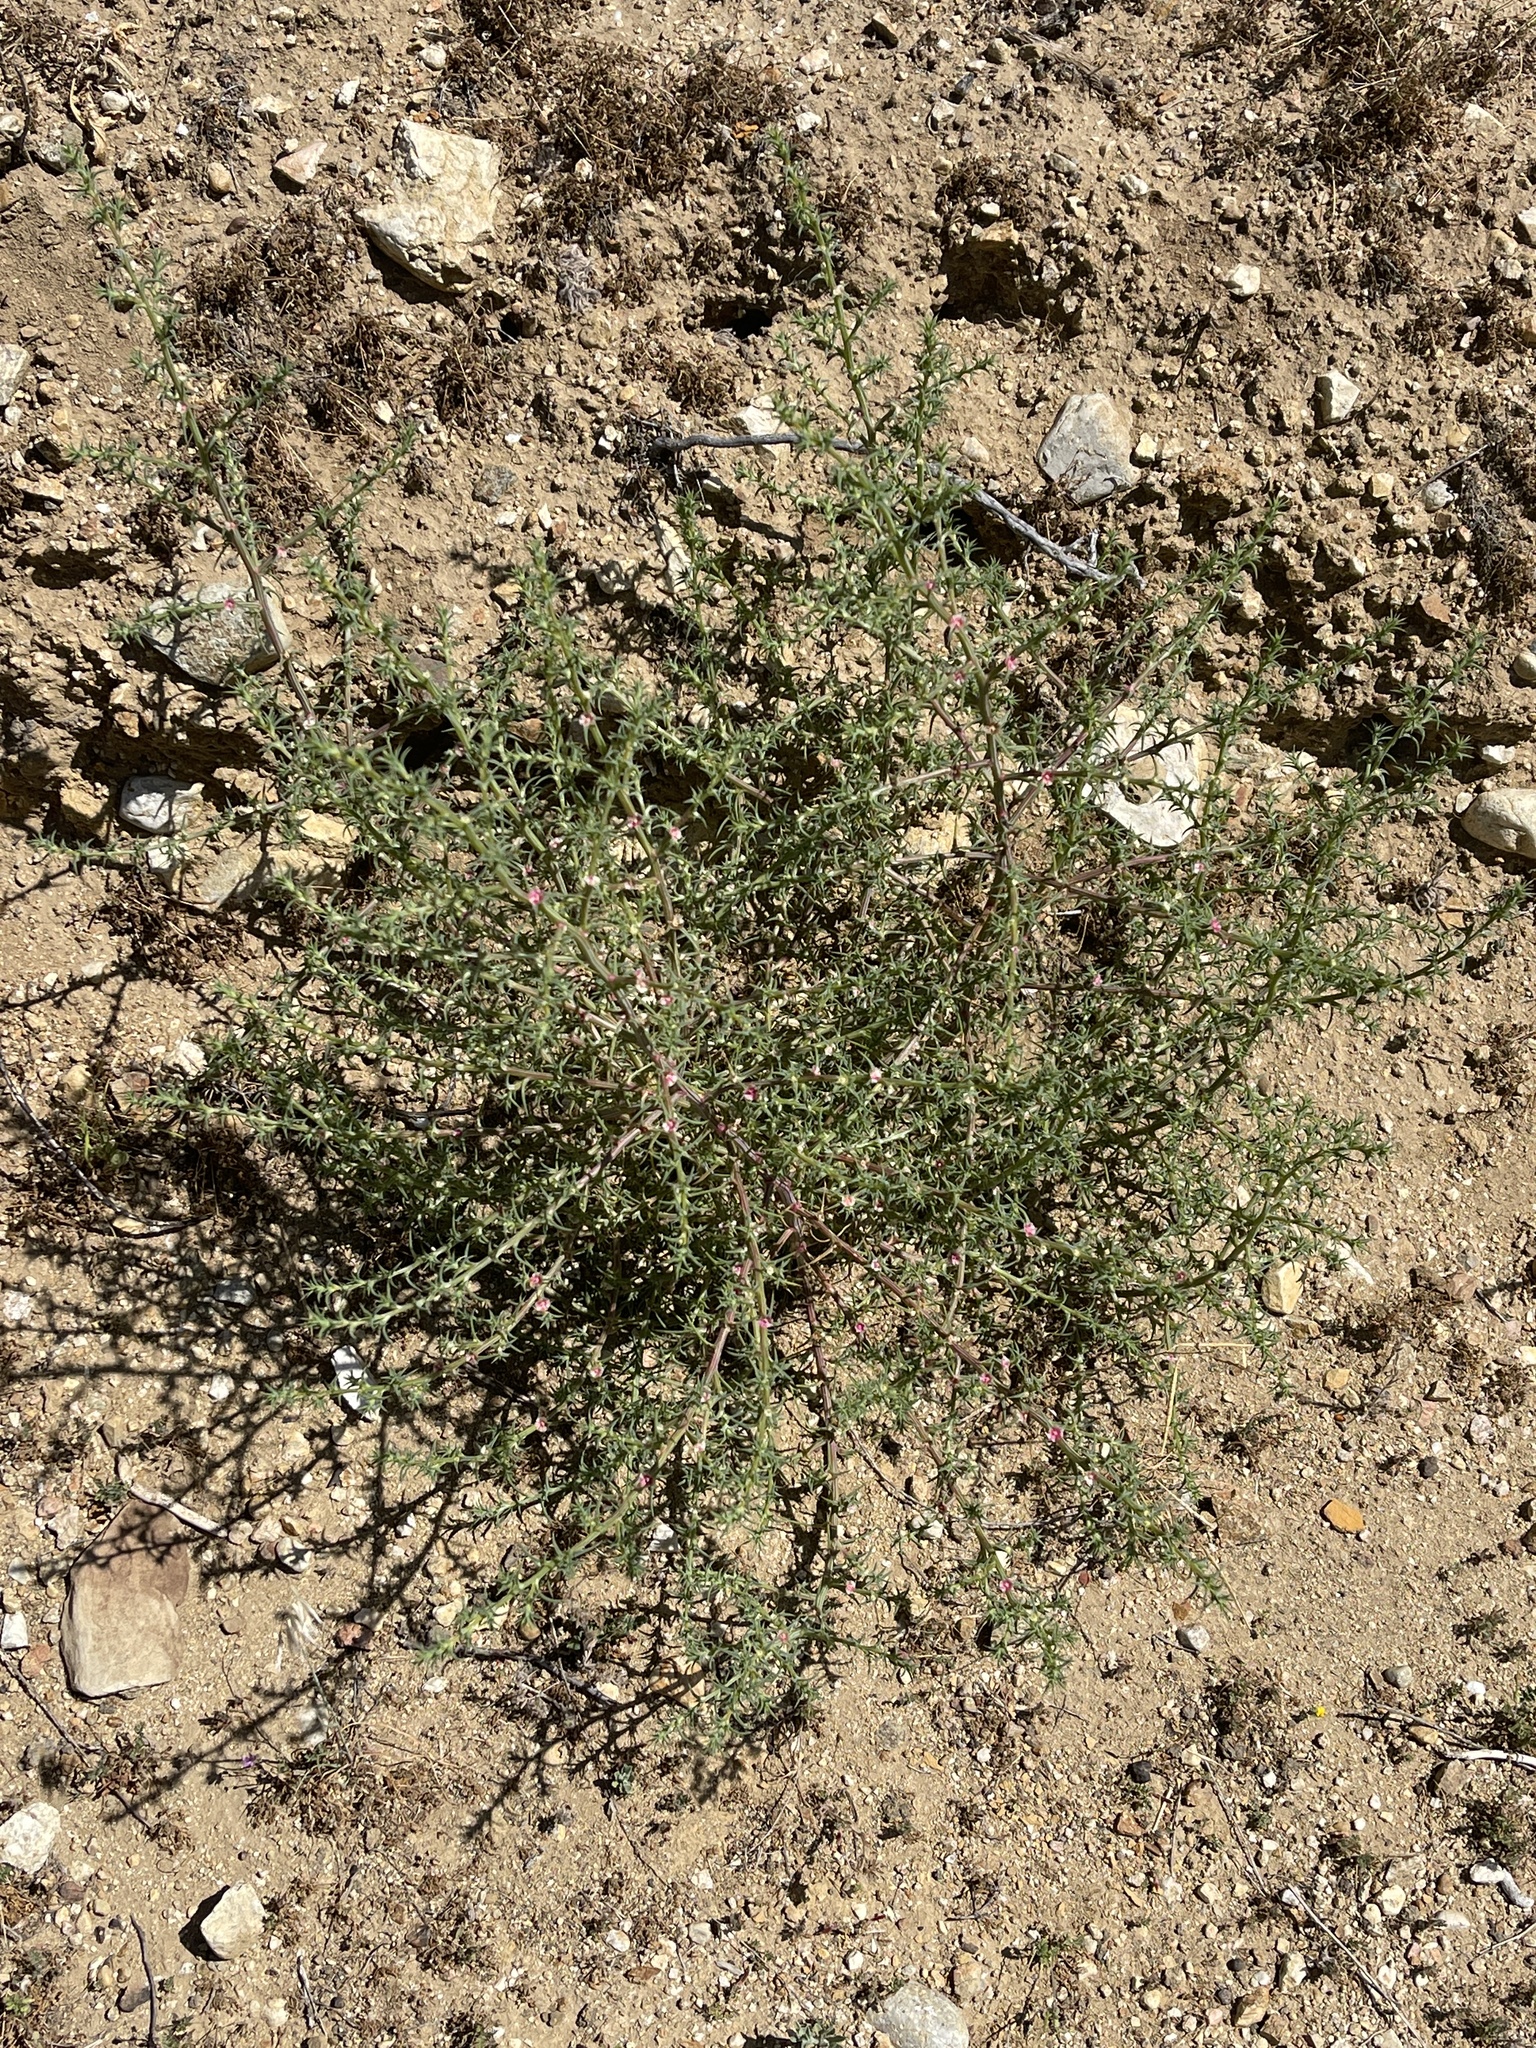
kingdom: Plantae
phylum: Tracheophyta
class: Magnoliopsida
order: Caryophyllales
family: Amaranthaceae
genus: Salsola
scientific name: Salsola australis
